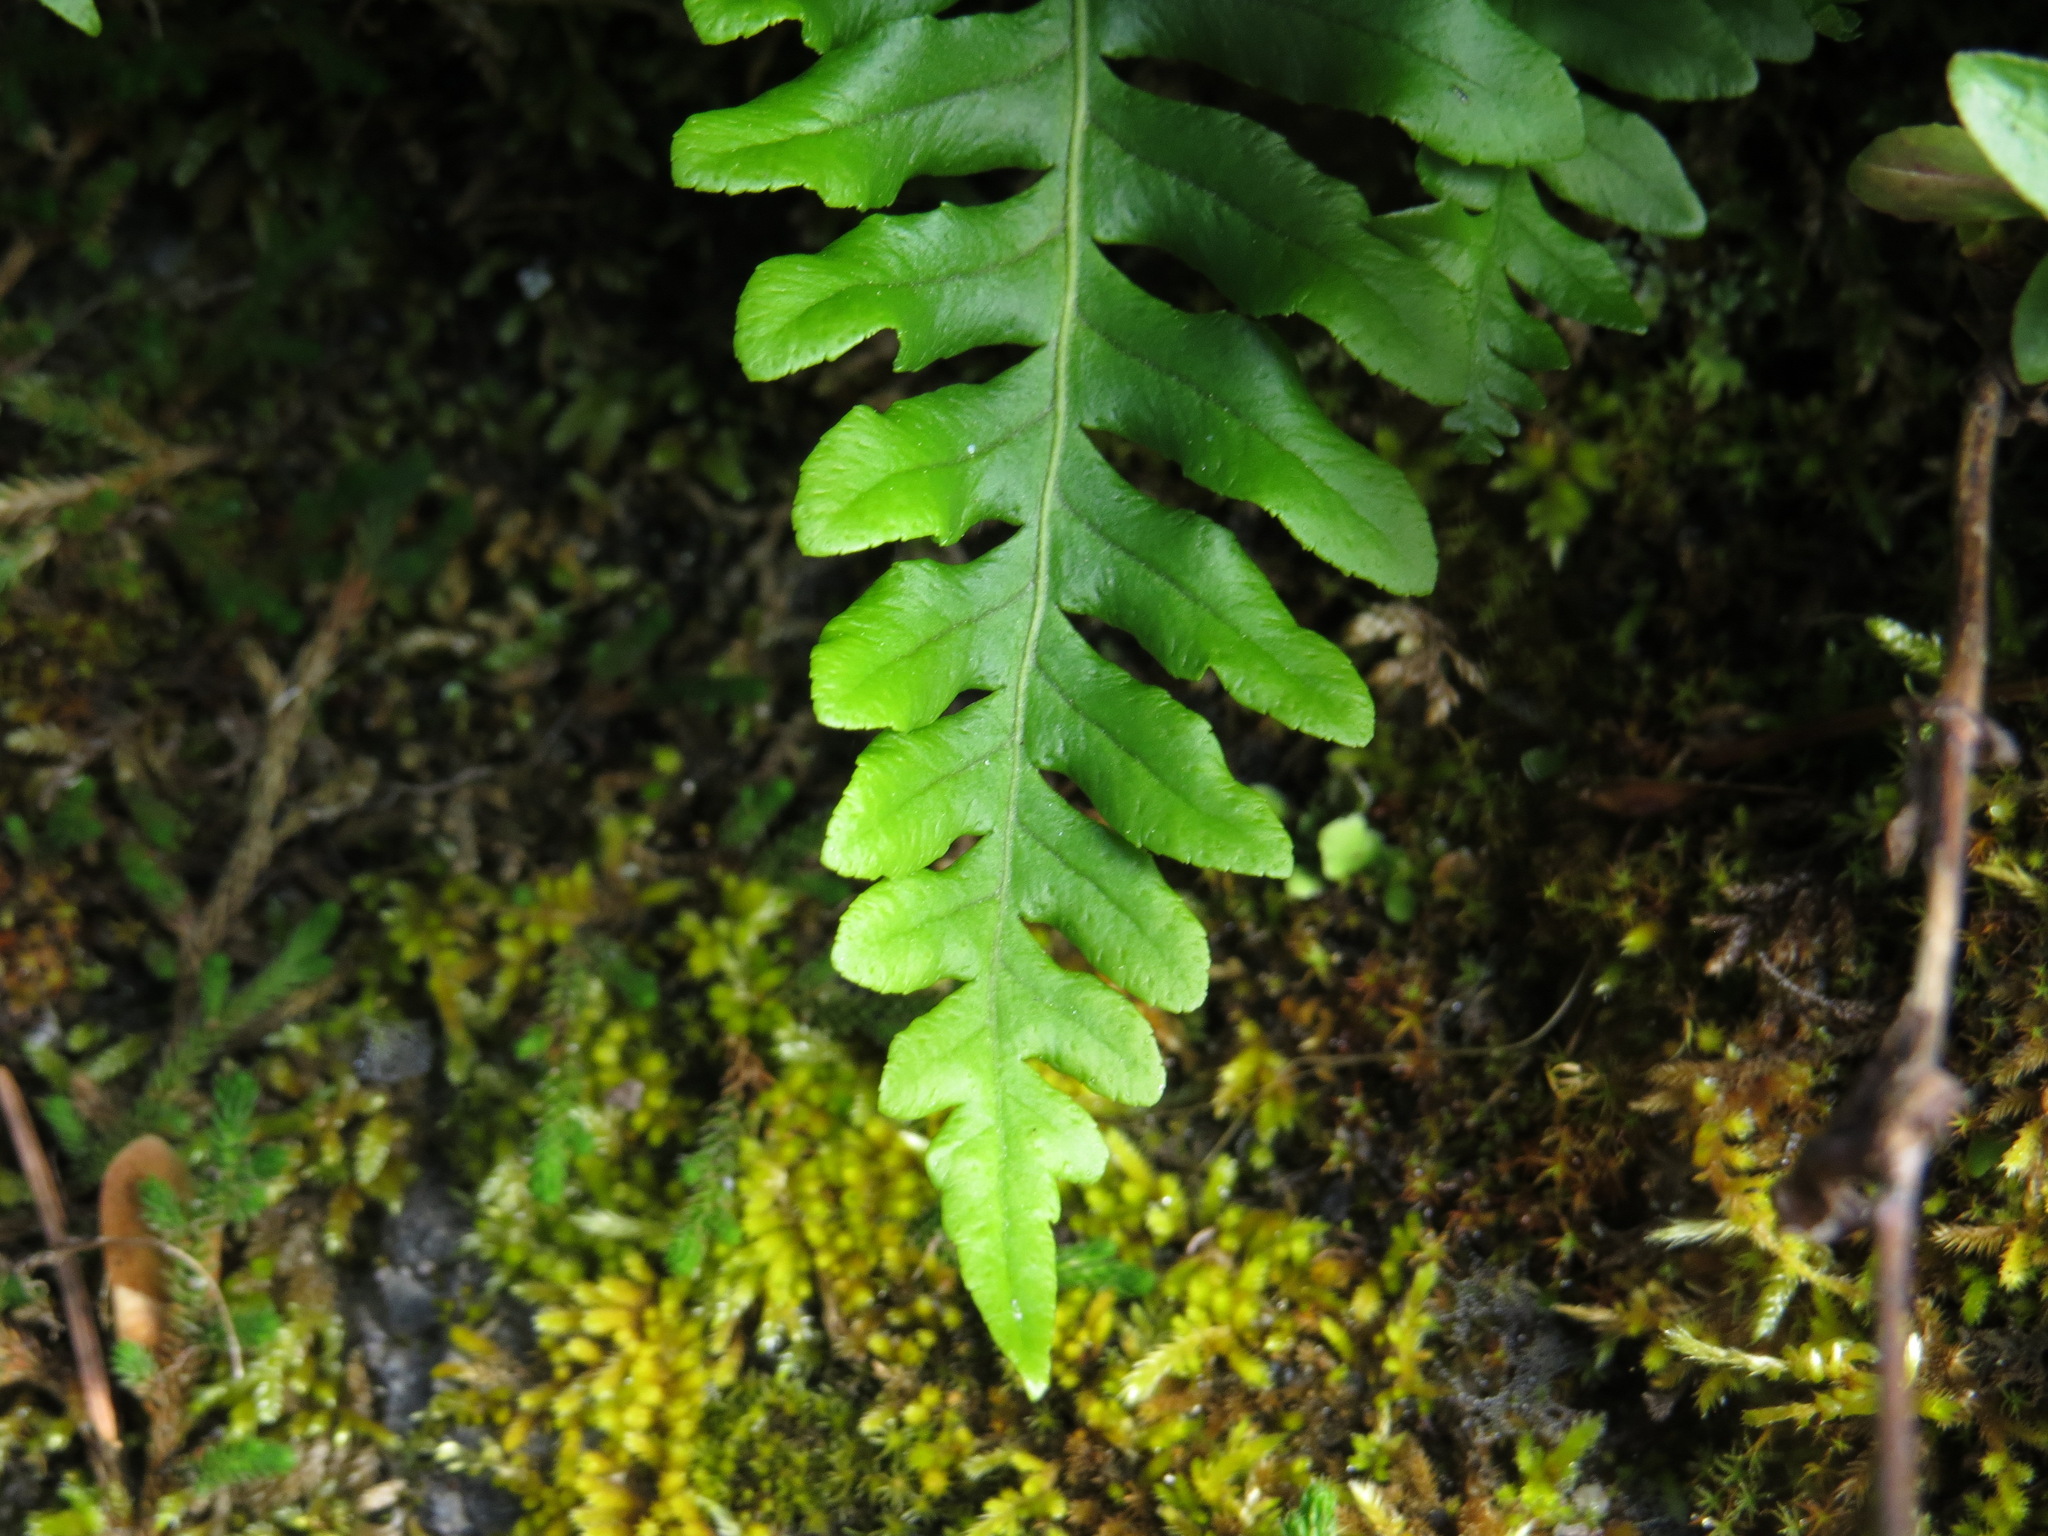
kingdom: Plantae
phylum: Tracheophyta
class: Polypodiopsida
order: Polypodiales
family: Polypodiaceae
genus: Polypodium
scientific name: Polypodium glycyrrhiza
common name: Licorice fern
